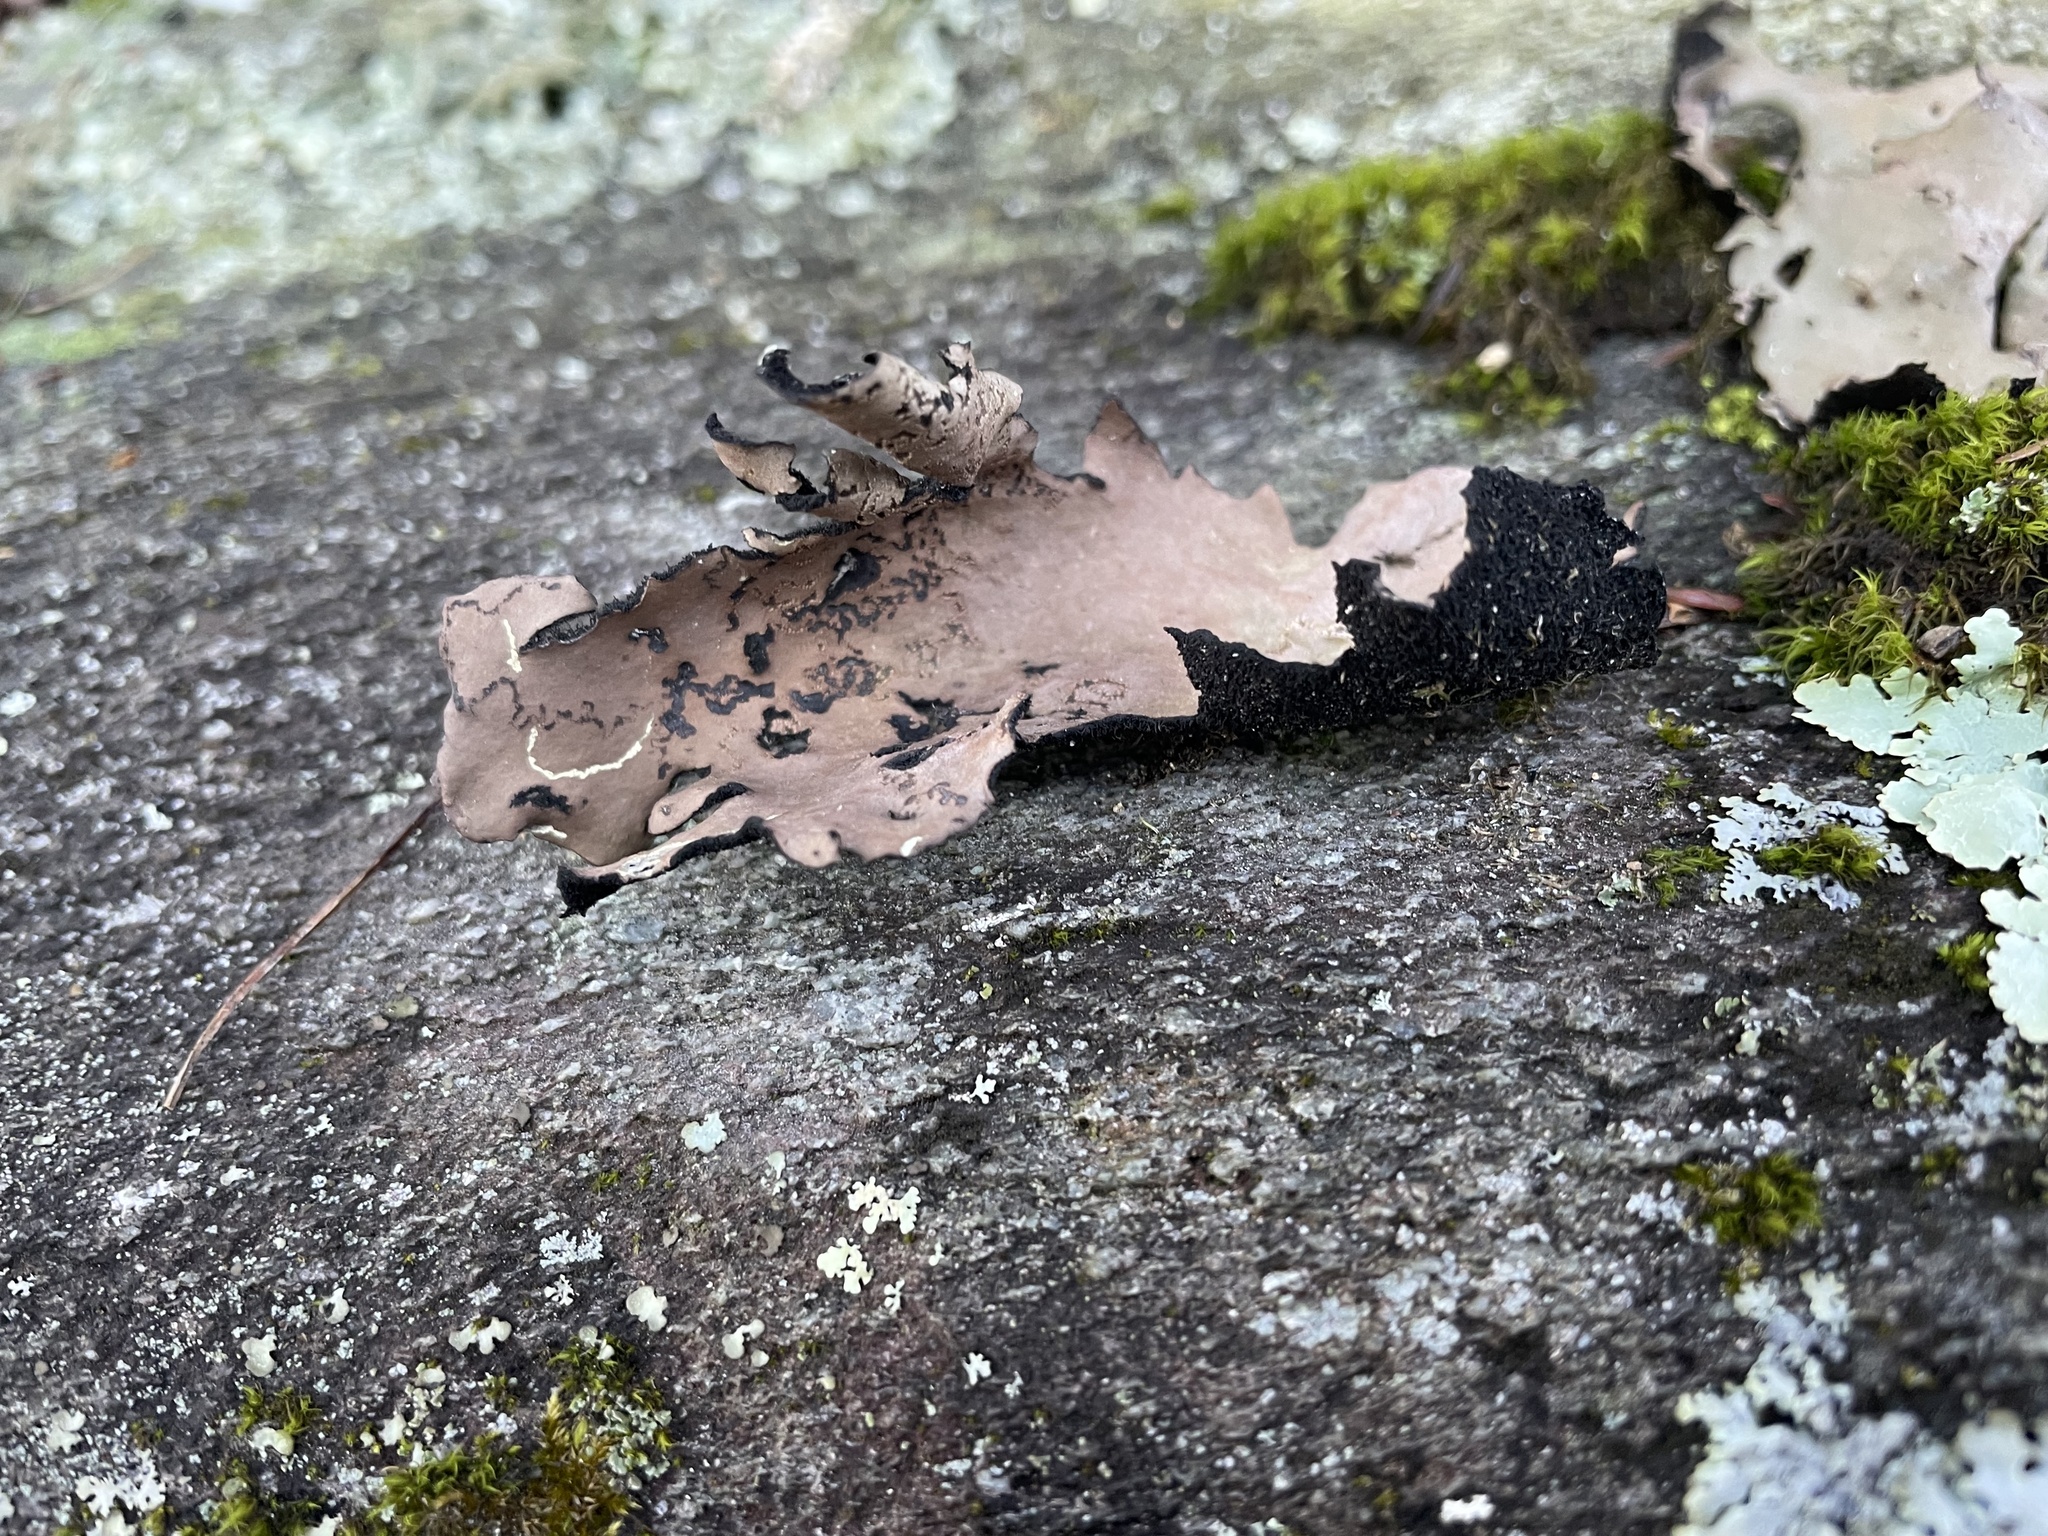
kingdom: Fungi
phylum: Ascomycota
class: Lecanoromycetes
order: Umbilicariales
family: Umbilicariaceae
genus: Umbilicaria
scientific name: Umbilicaria mammulata
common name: Smooth rock tripe
